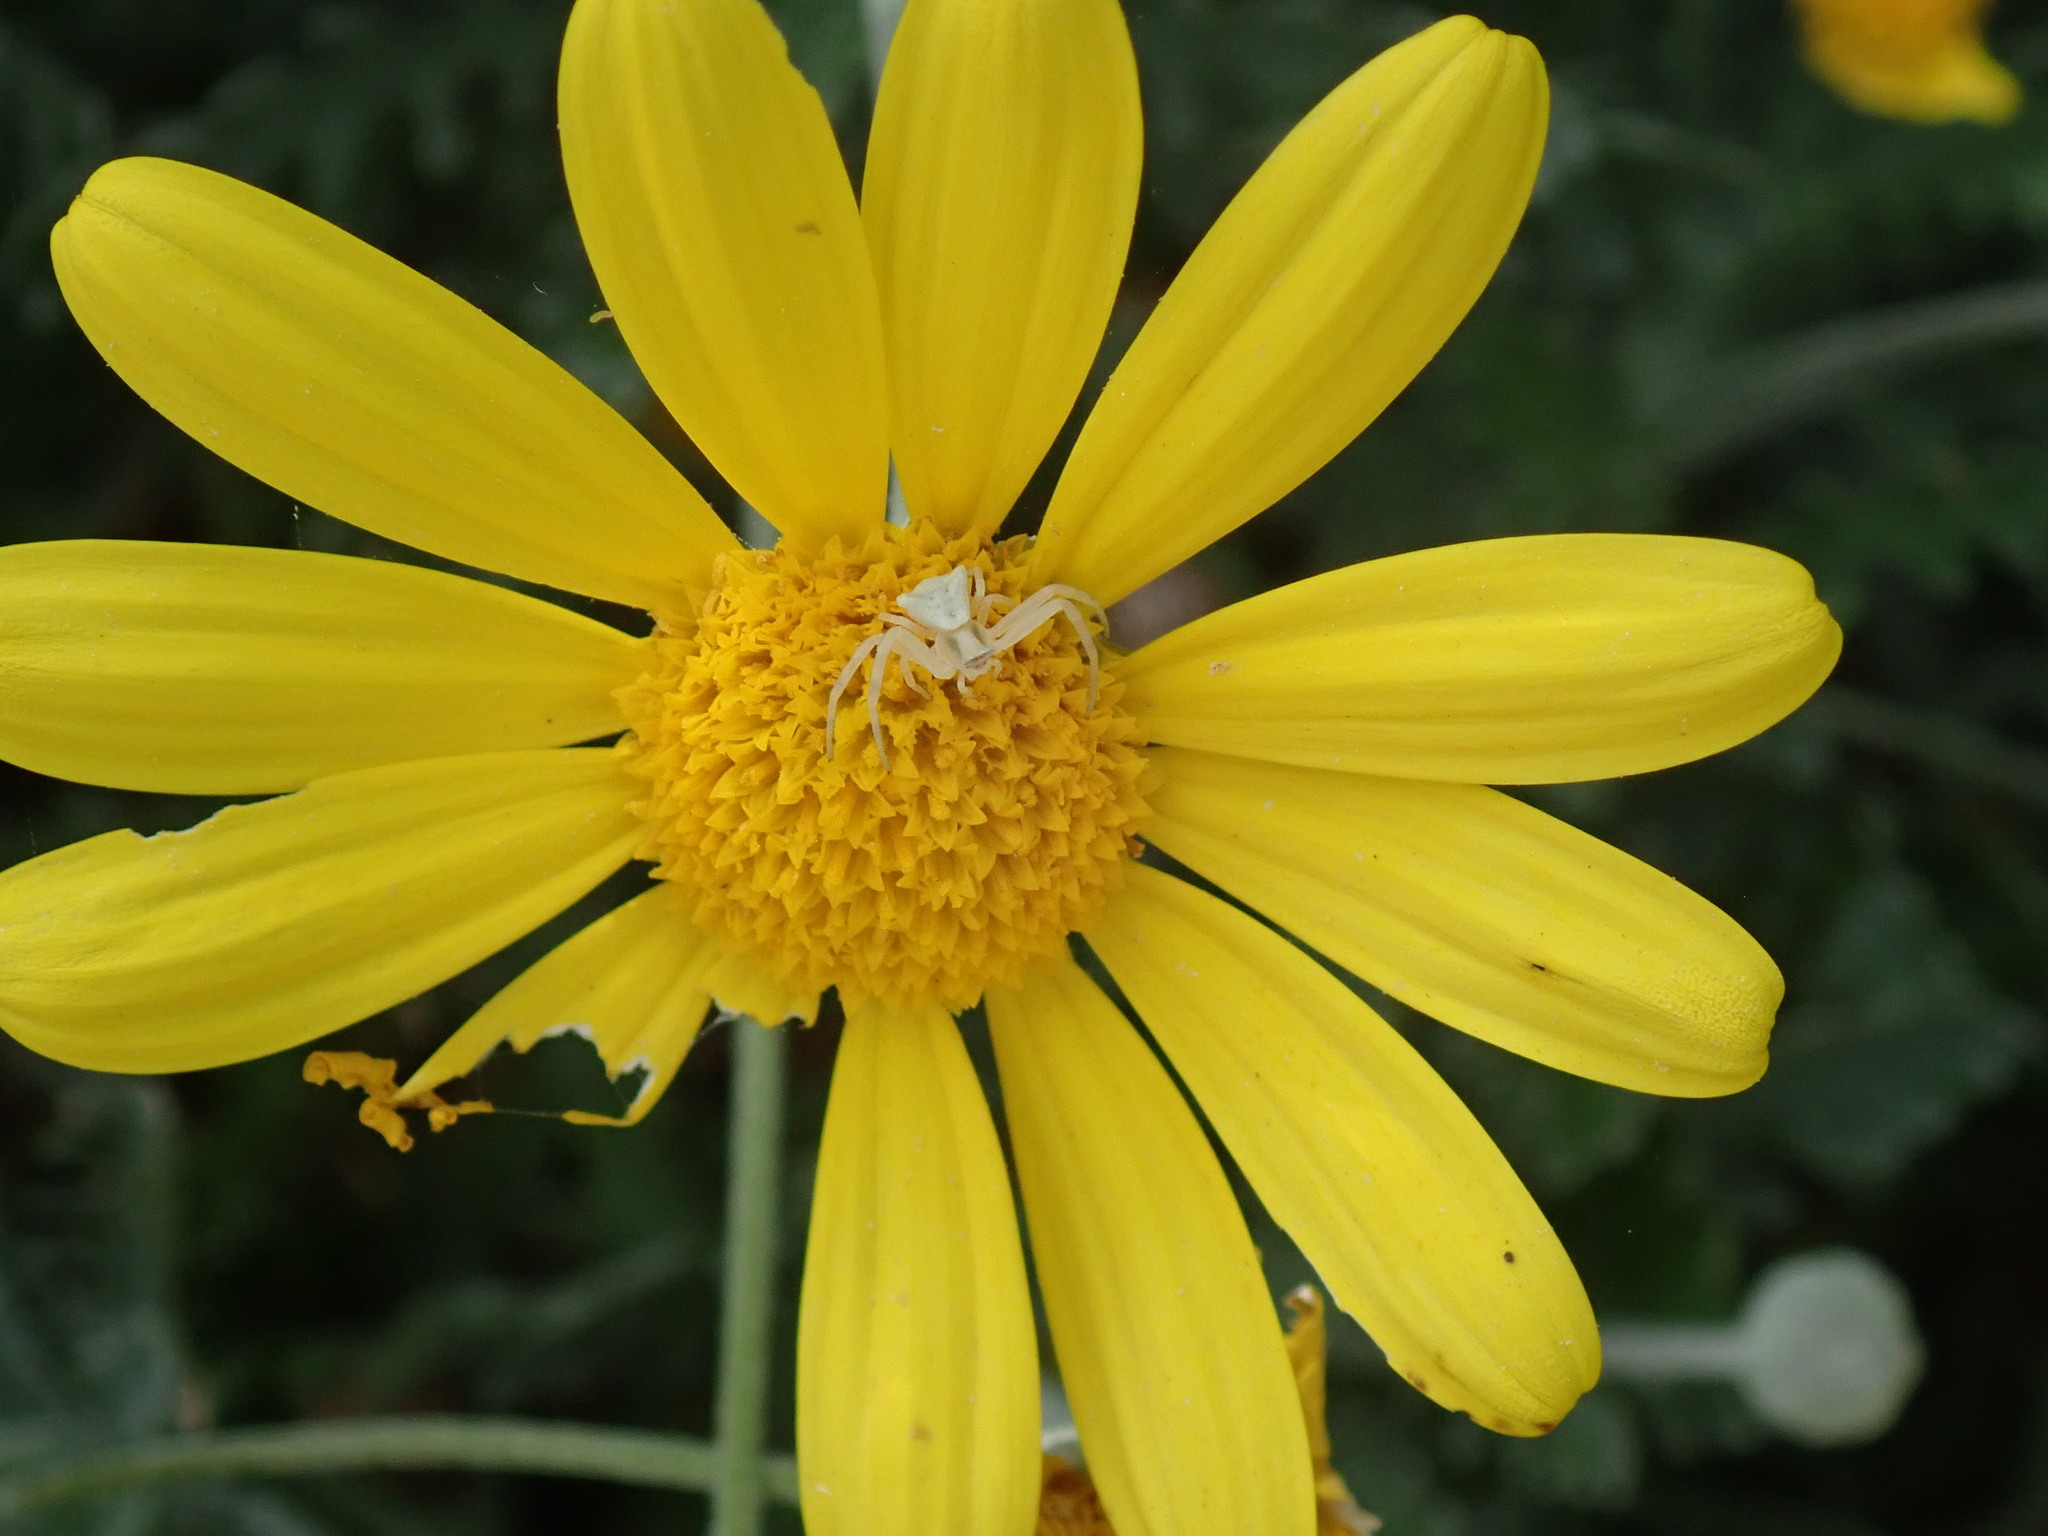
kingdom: Animalia
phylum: Arthropoda
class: Arachnida
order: Araneae
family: Thomisidae
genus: Thomisus
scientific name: Thomisus onustus
